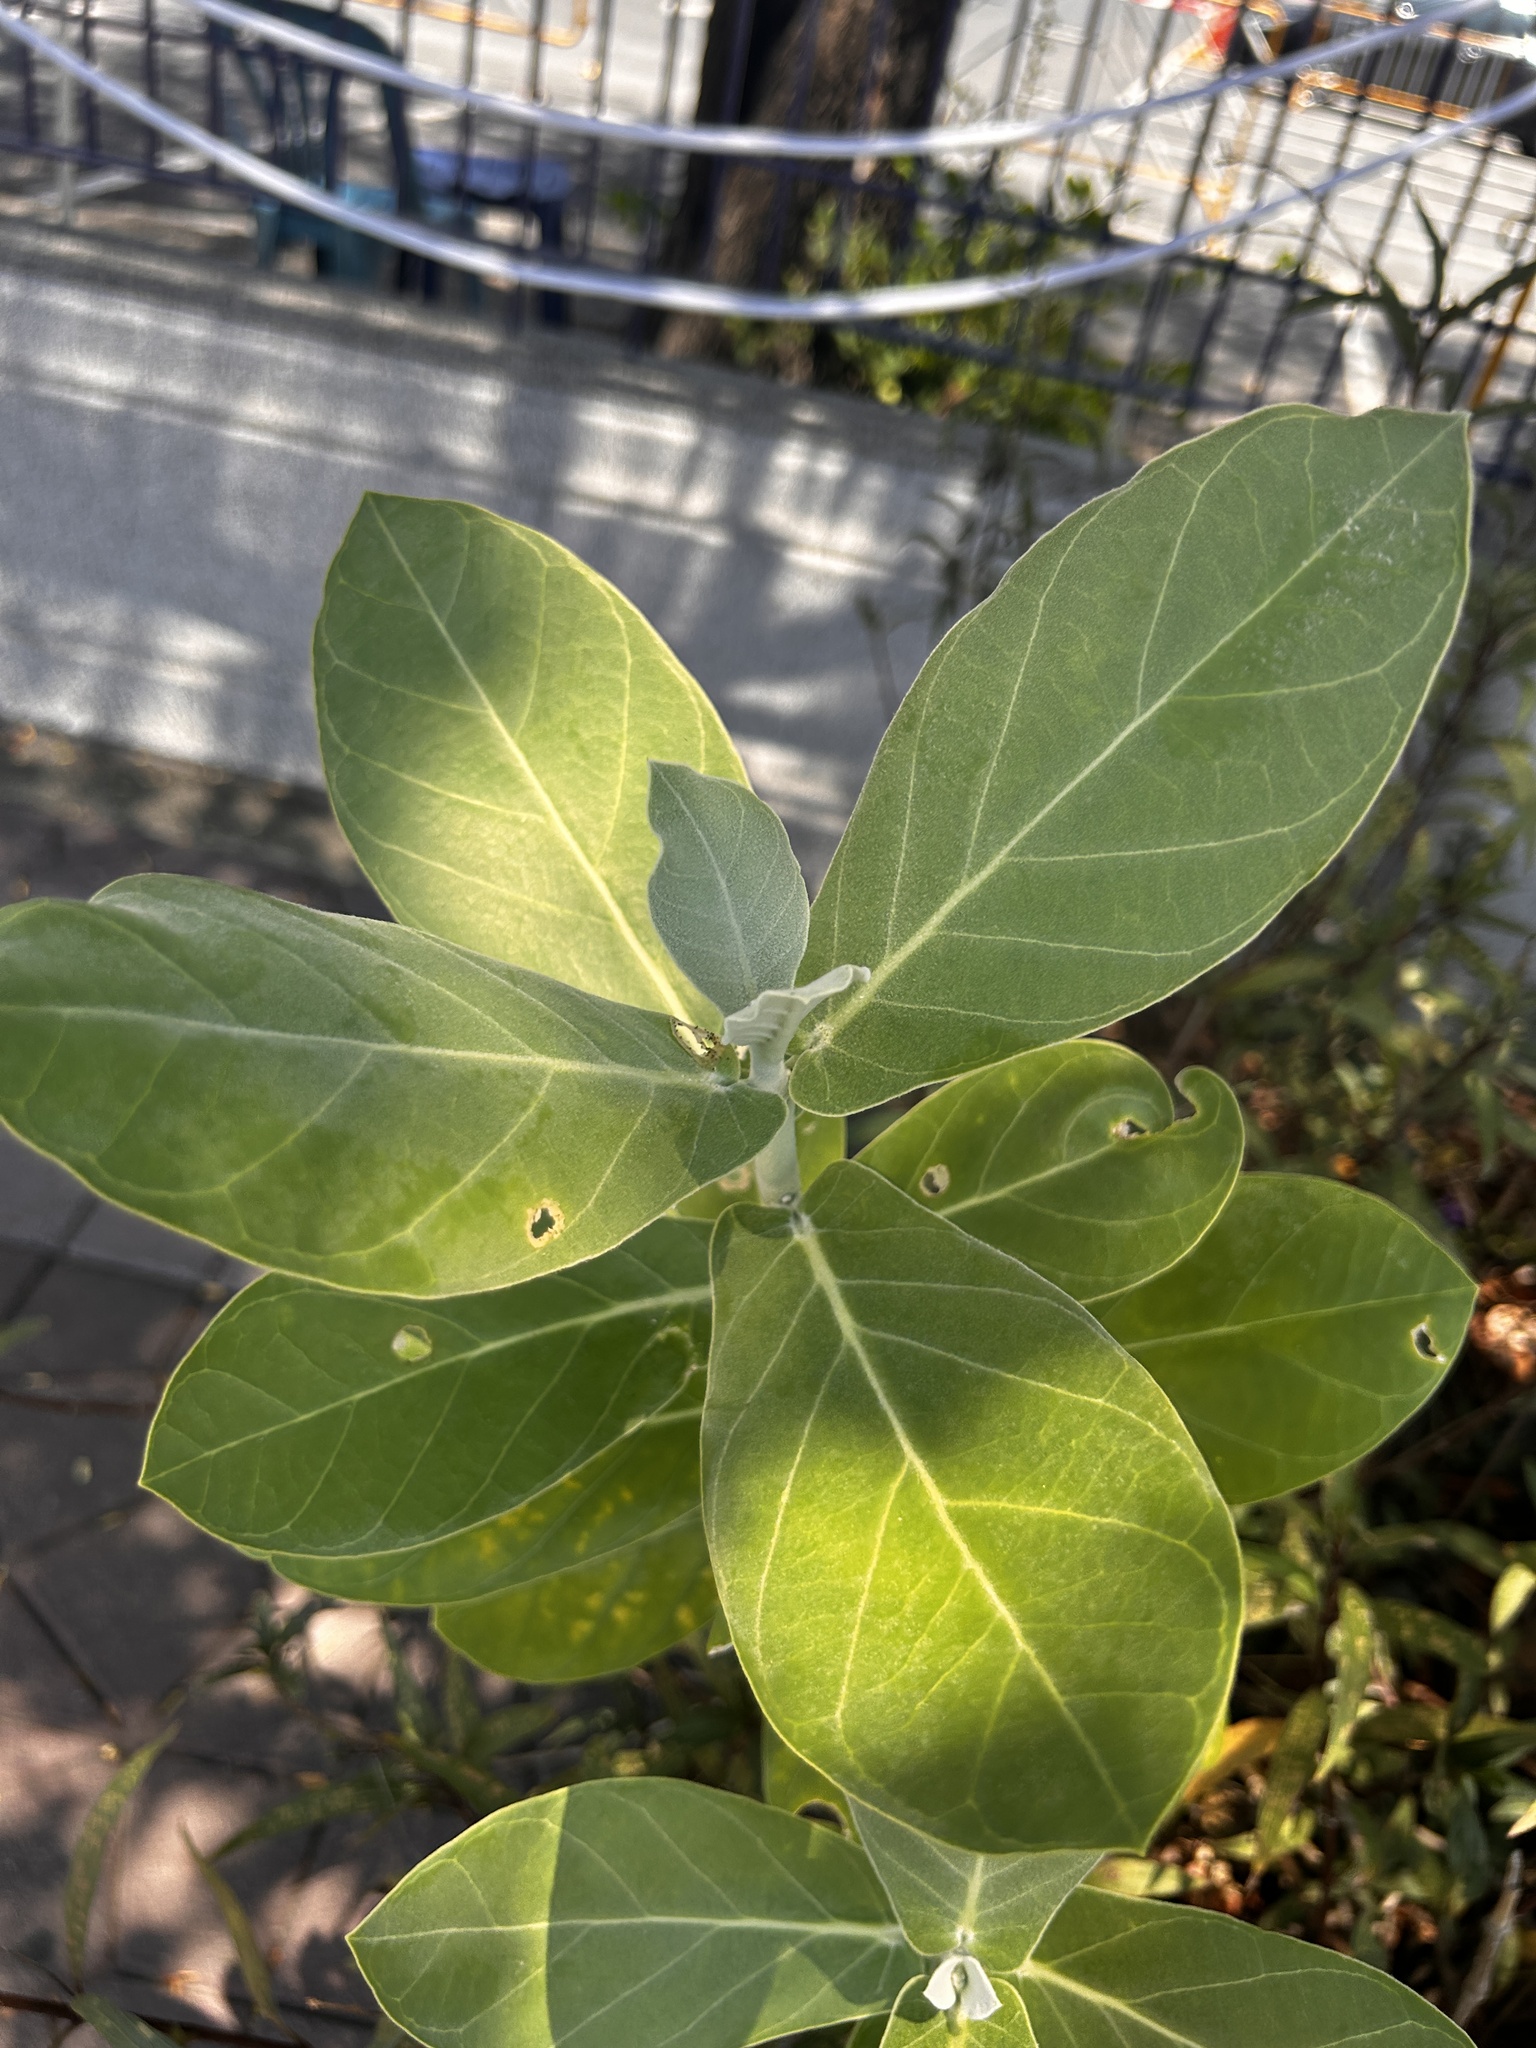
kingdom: Plantae
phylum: Tracheophyta
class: Magnoliopsida
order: Gentianales
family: Apocynaceae
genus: Calotropis
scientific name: Calotropis gigantea
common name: Crown flower
